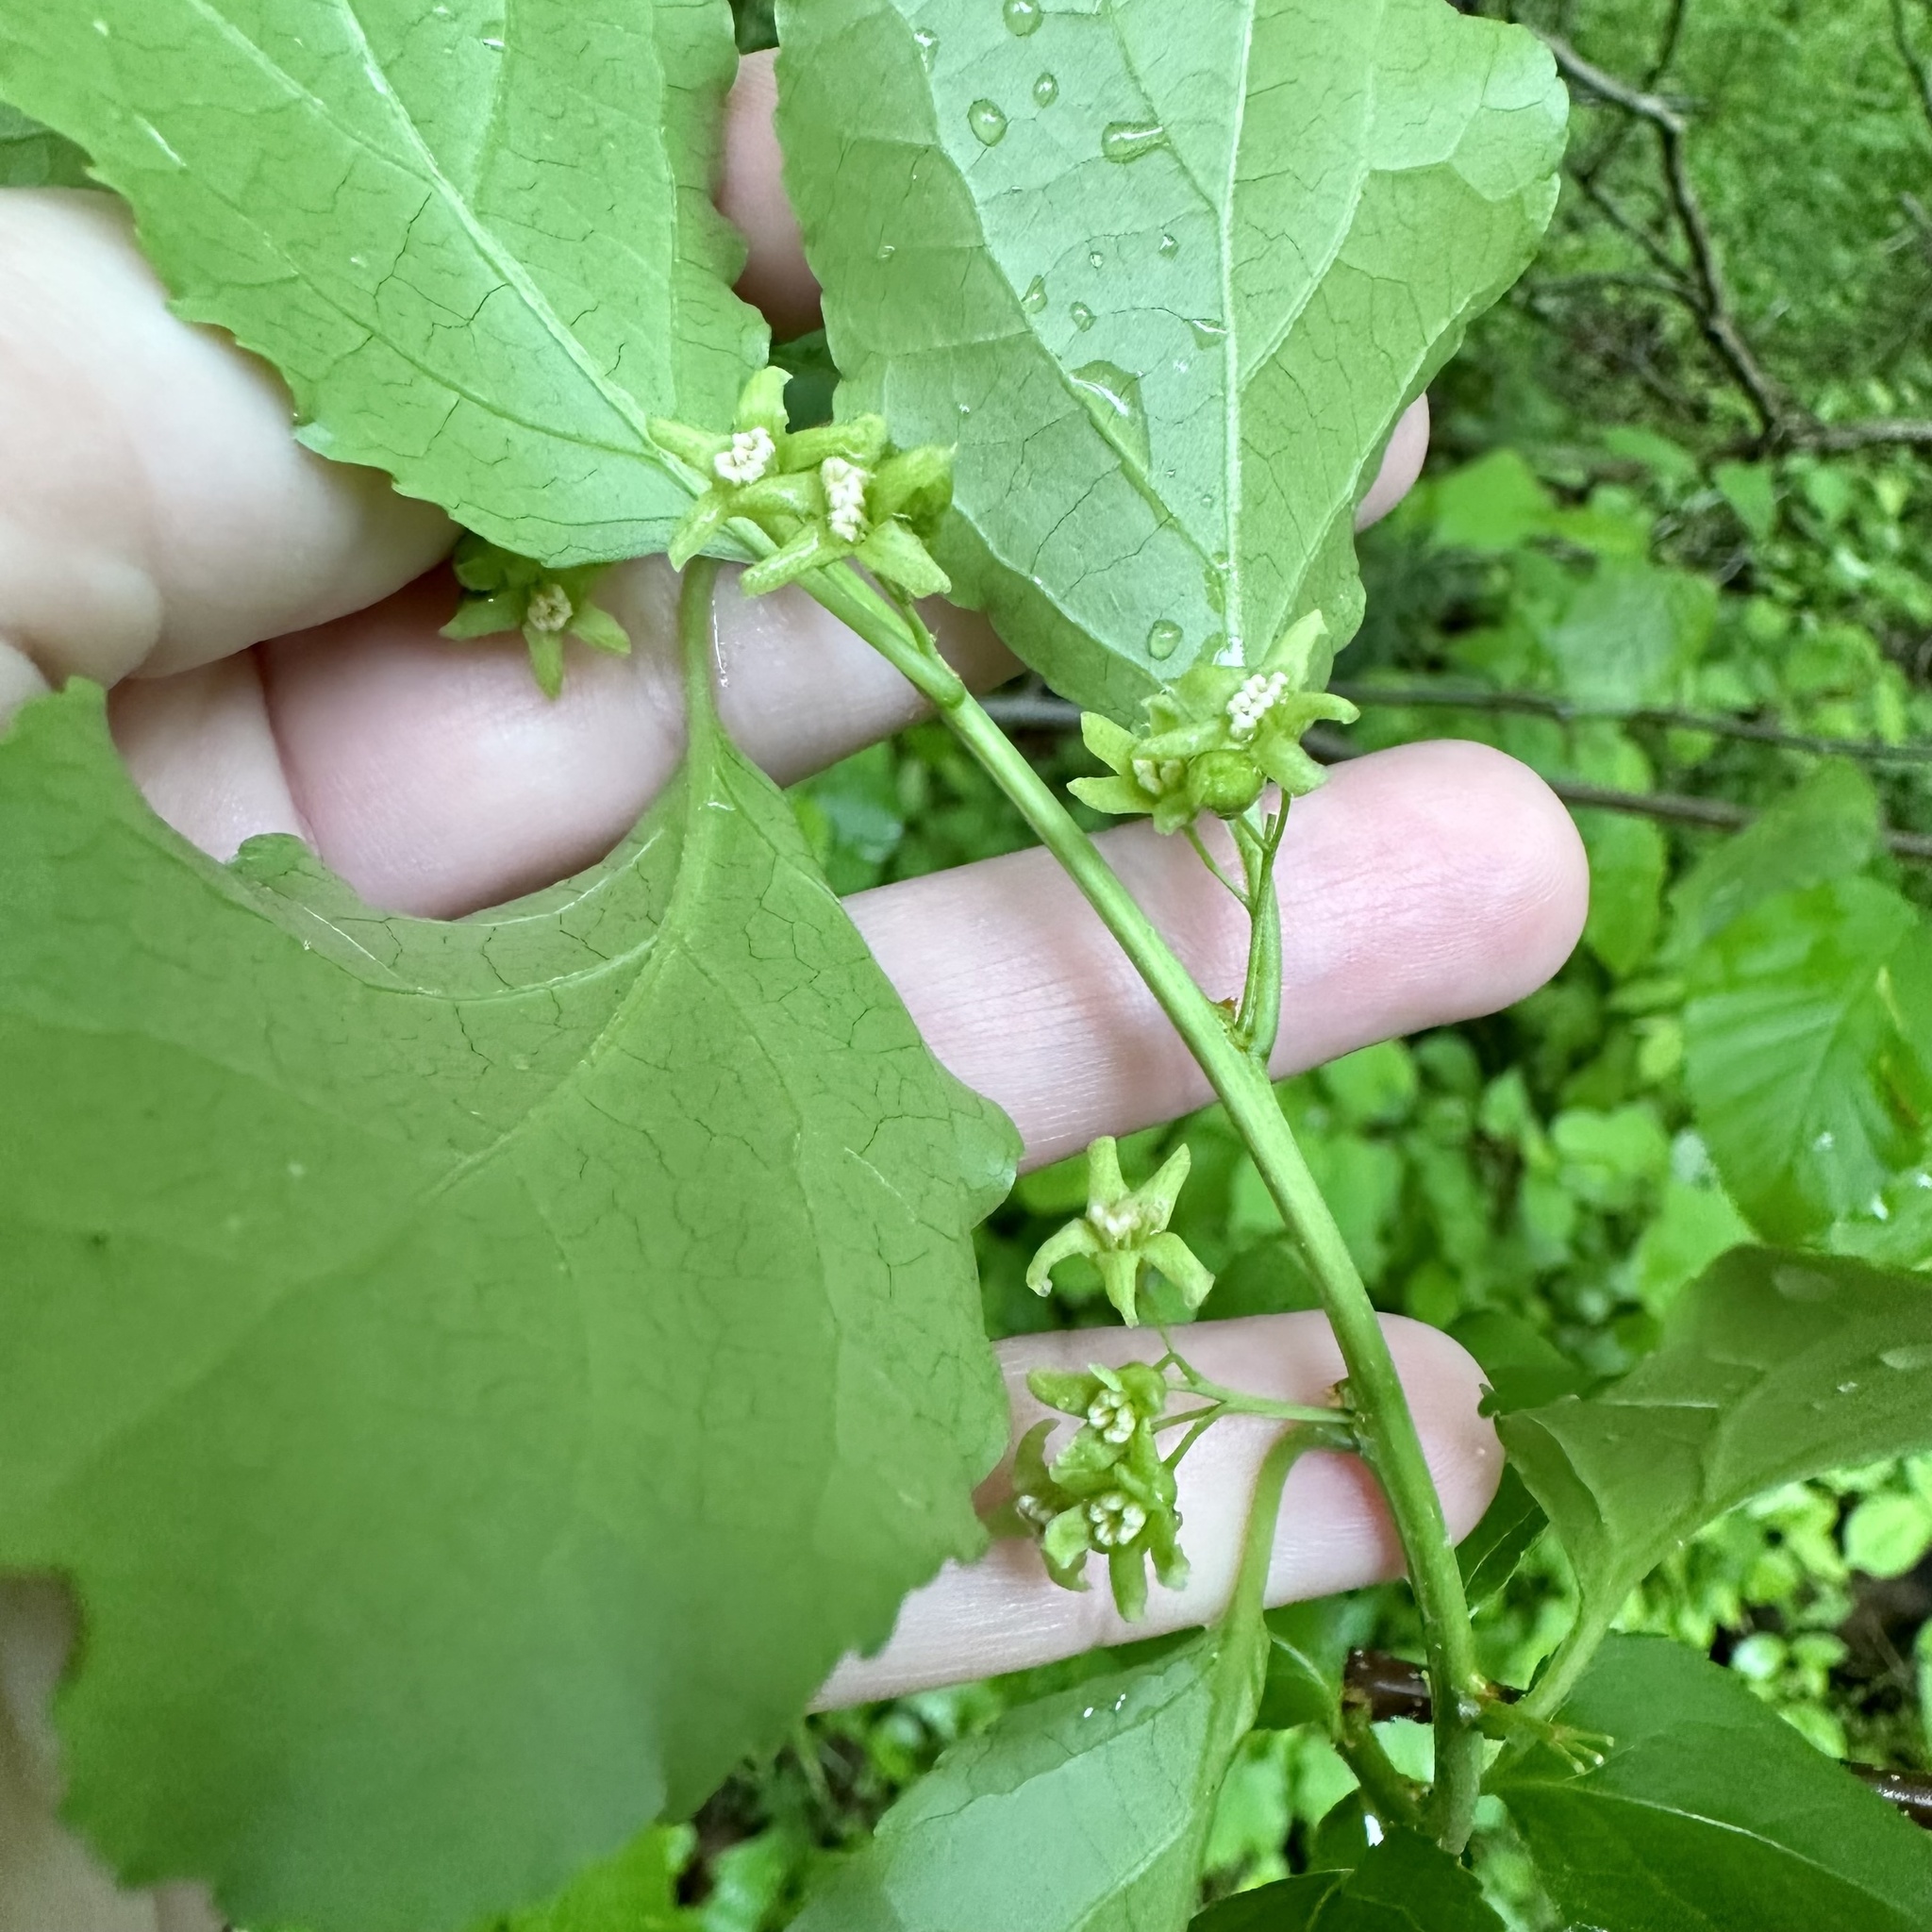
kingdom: Plantae
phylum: Tracheophyta
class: Magnoliopsida
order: Celastrales
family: Celastraceae
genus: Celastrus
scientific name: Celastrus orbiculatus
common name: Oriental bittersweet
